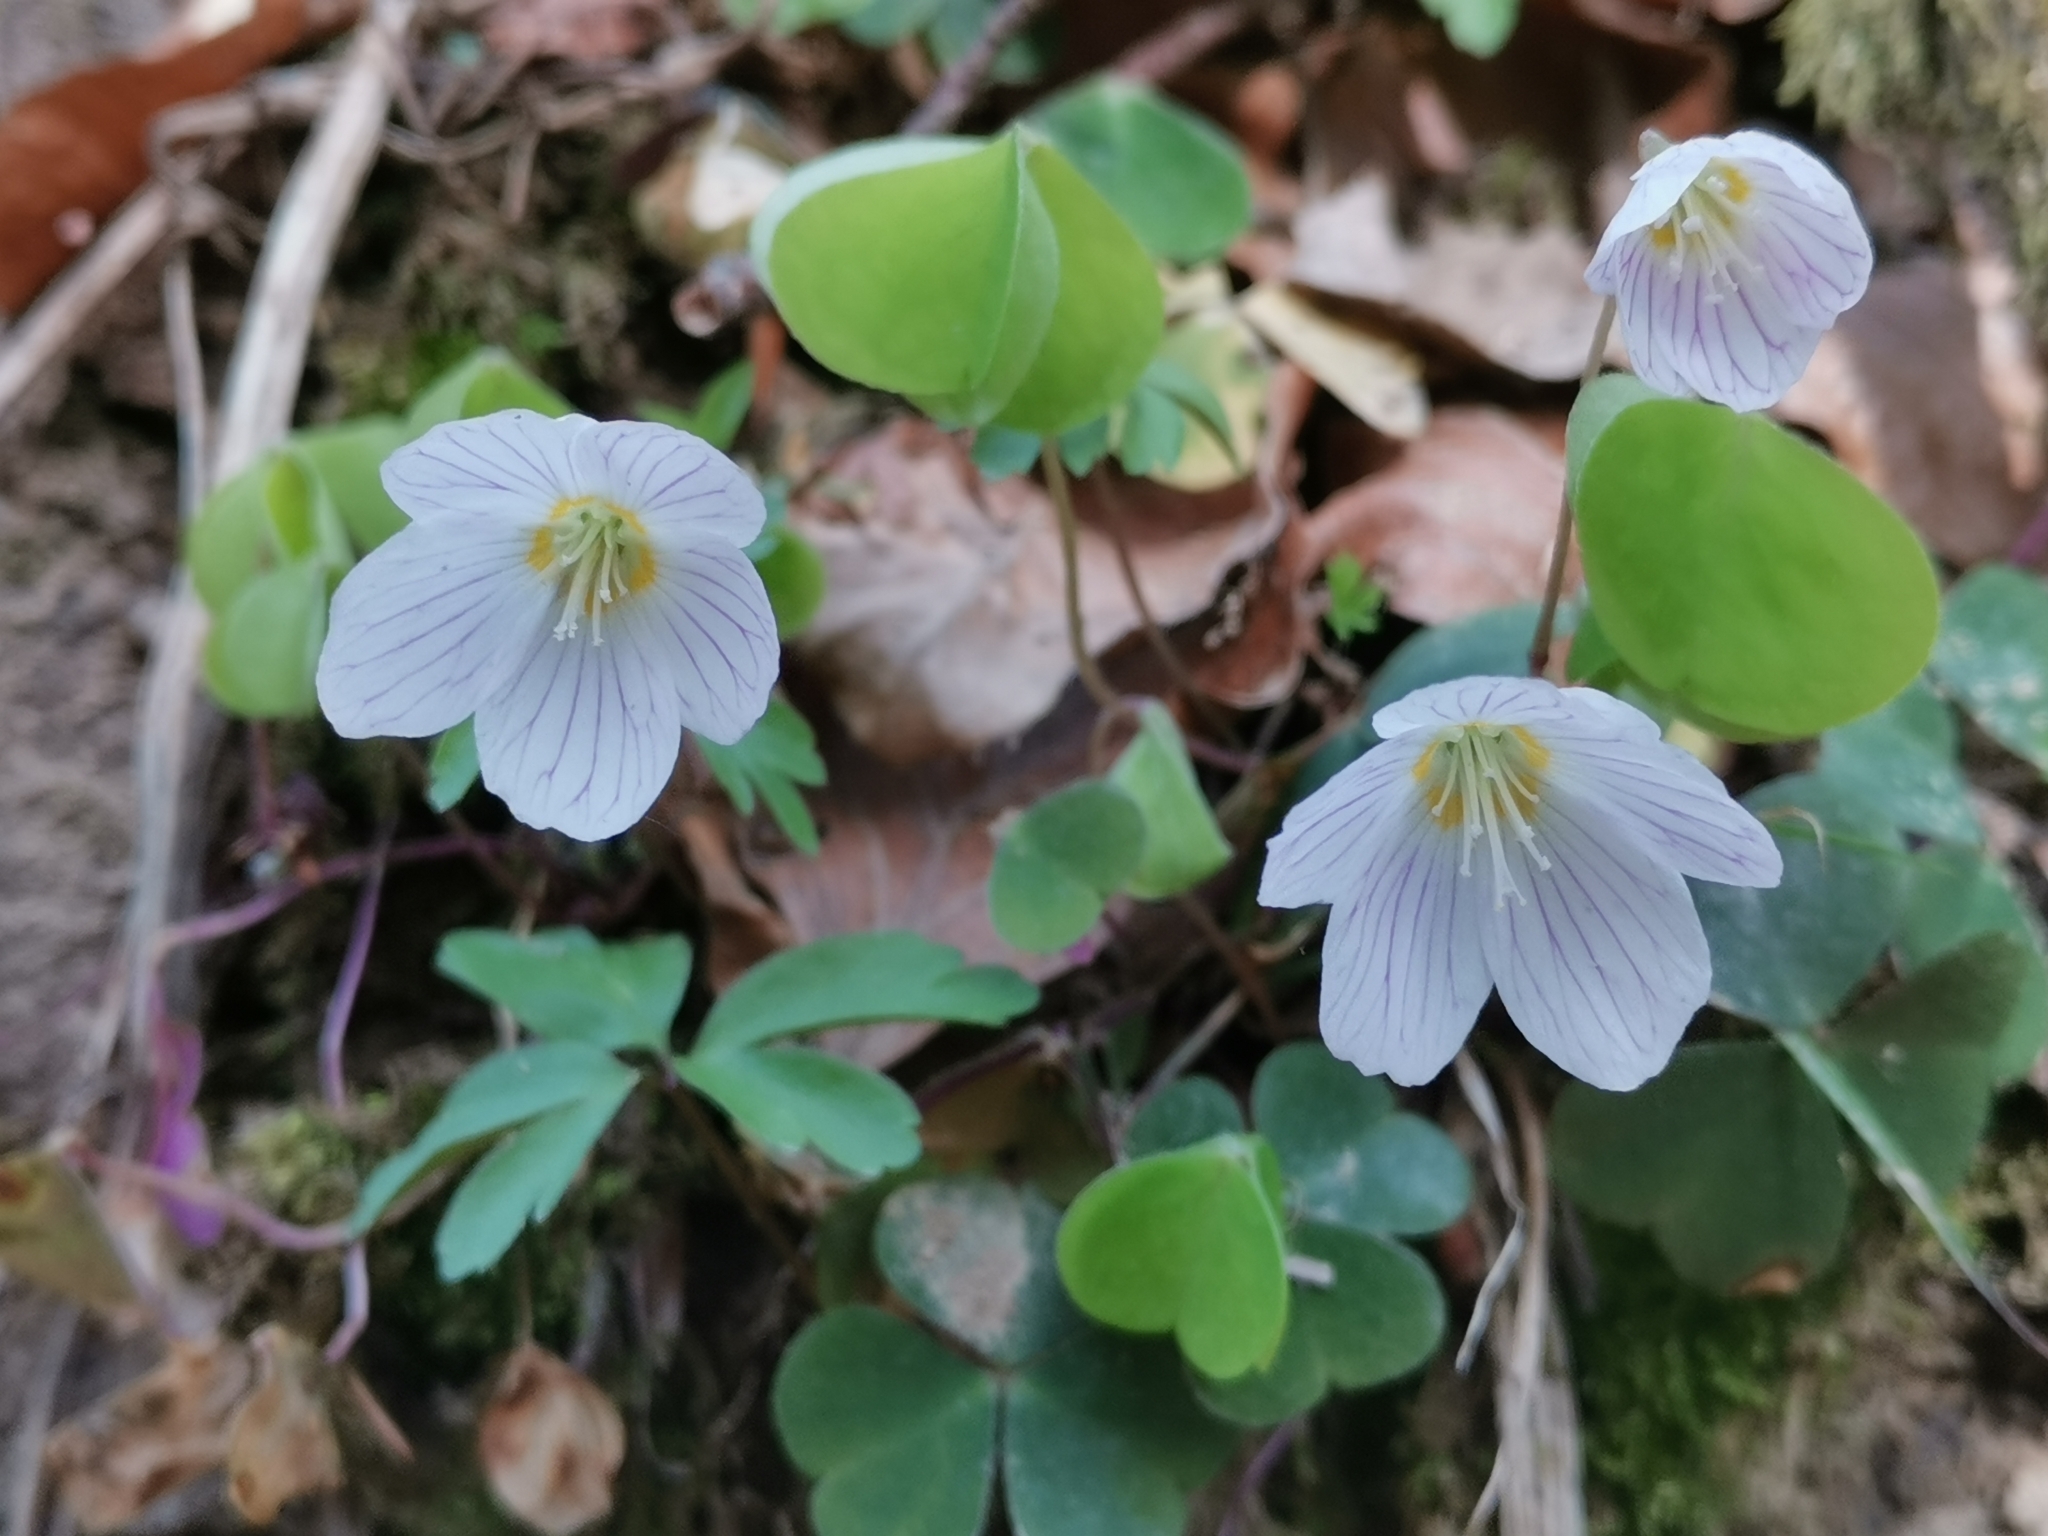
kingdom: Plantae
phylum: Tracheophyta
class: Magnoliopsida
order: Oxalidales
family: Oxalidaceae
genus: Oxalis
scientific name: Oxalis acetosella
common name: Wood-sorrel
